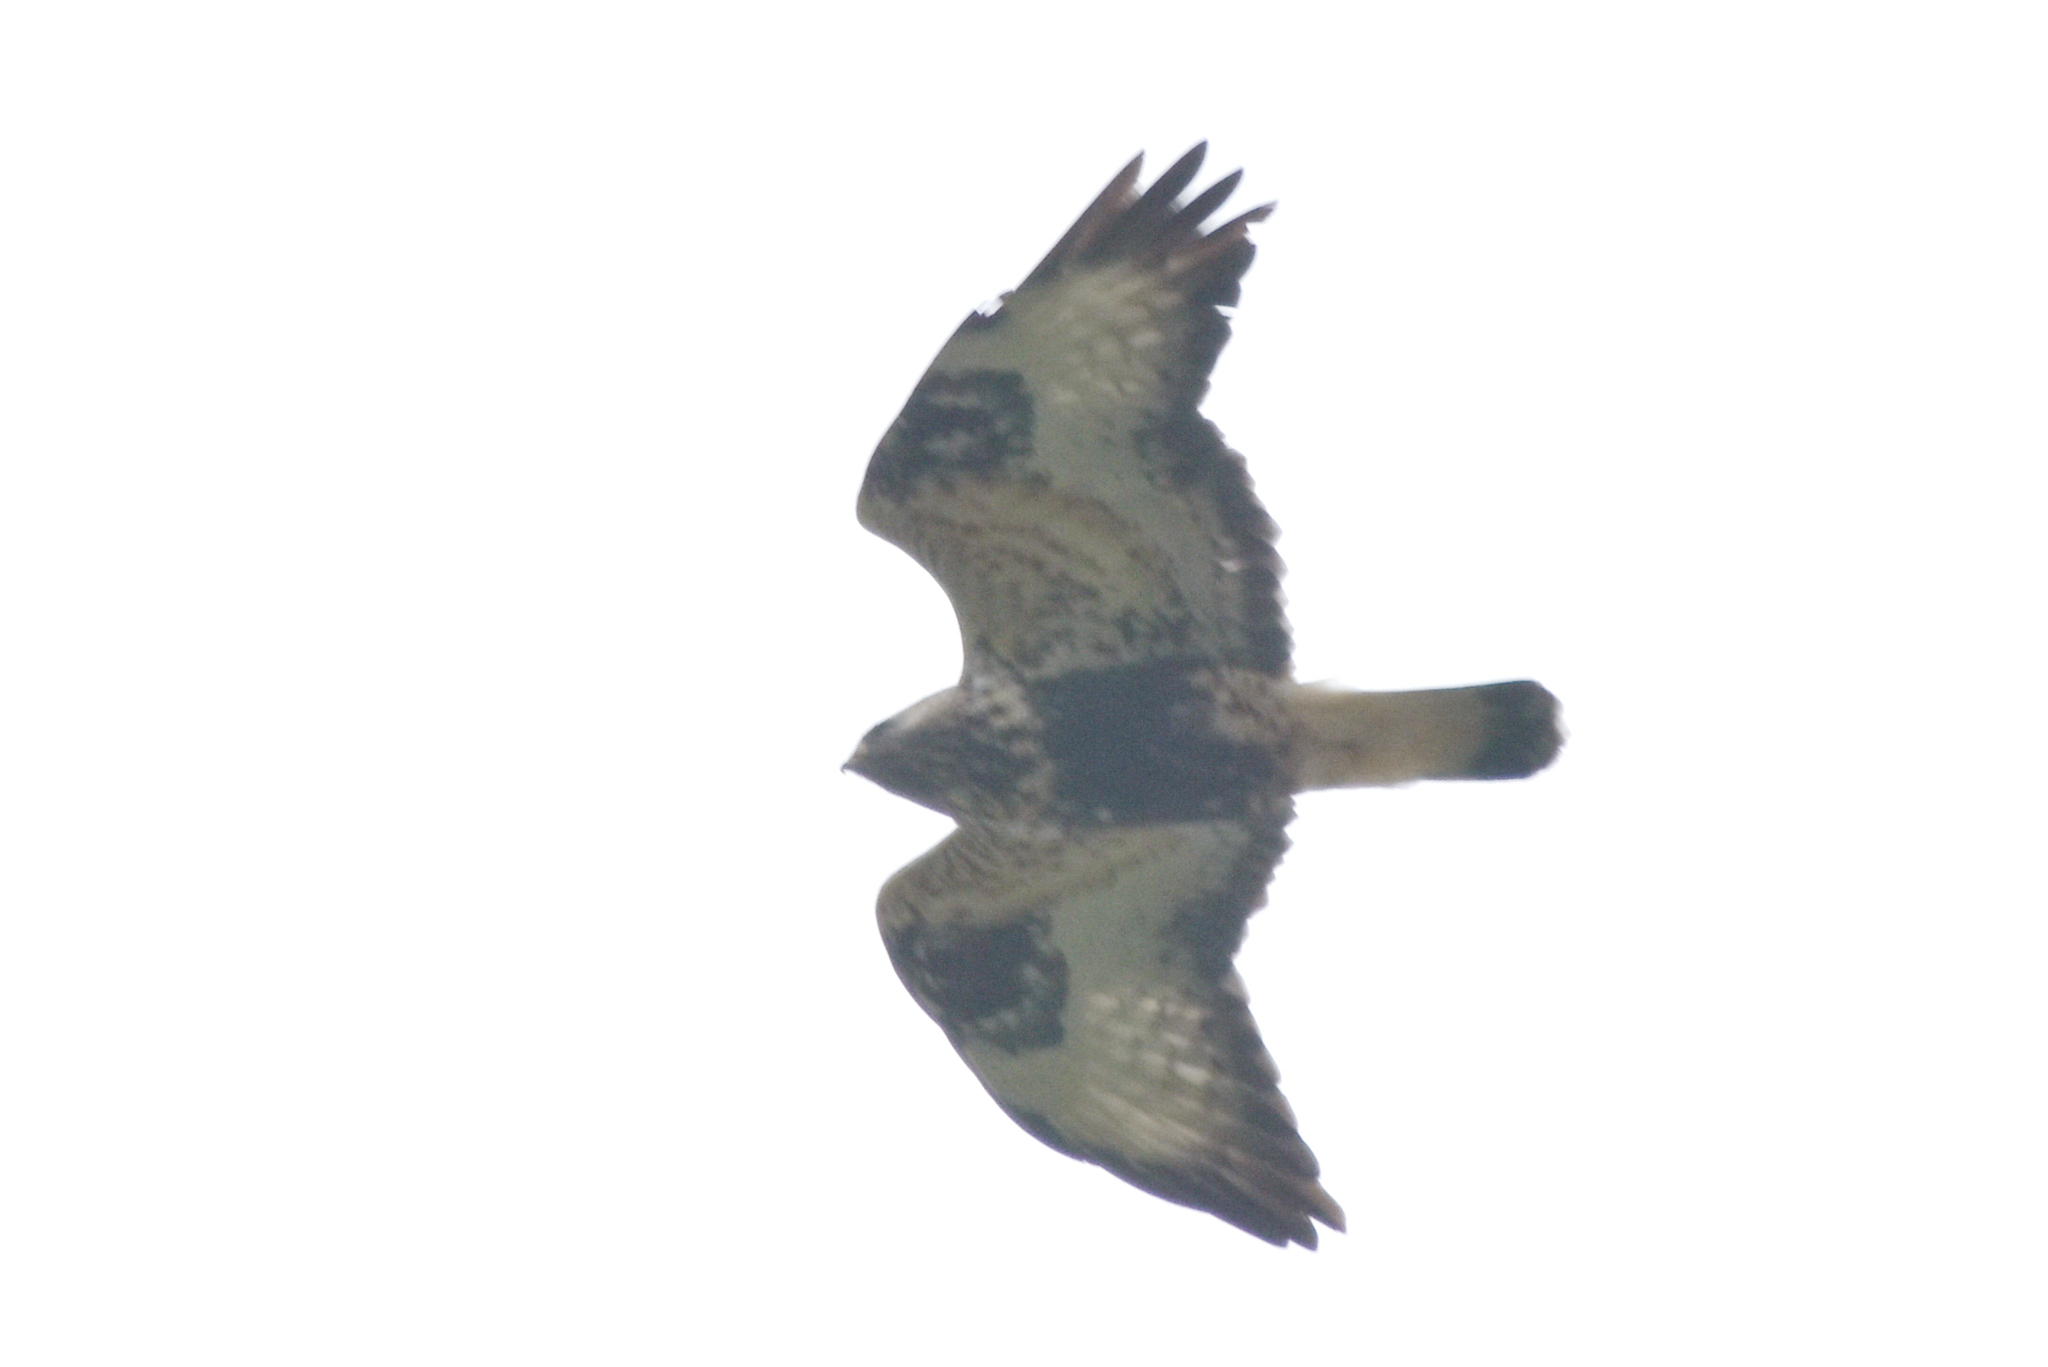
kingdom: Animalia
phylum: Chordata
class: Aves
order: Accipitriformes
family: Accipitridae
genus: Buteo
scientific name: Buteo lagopus
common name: Rough-legged buzzard
